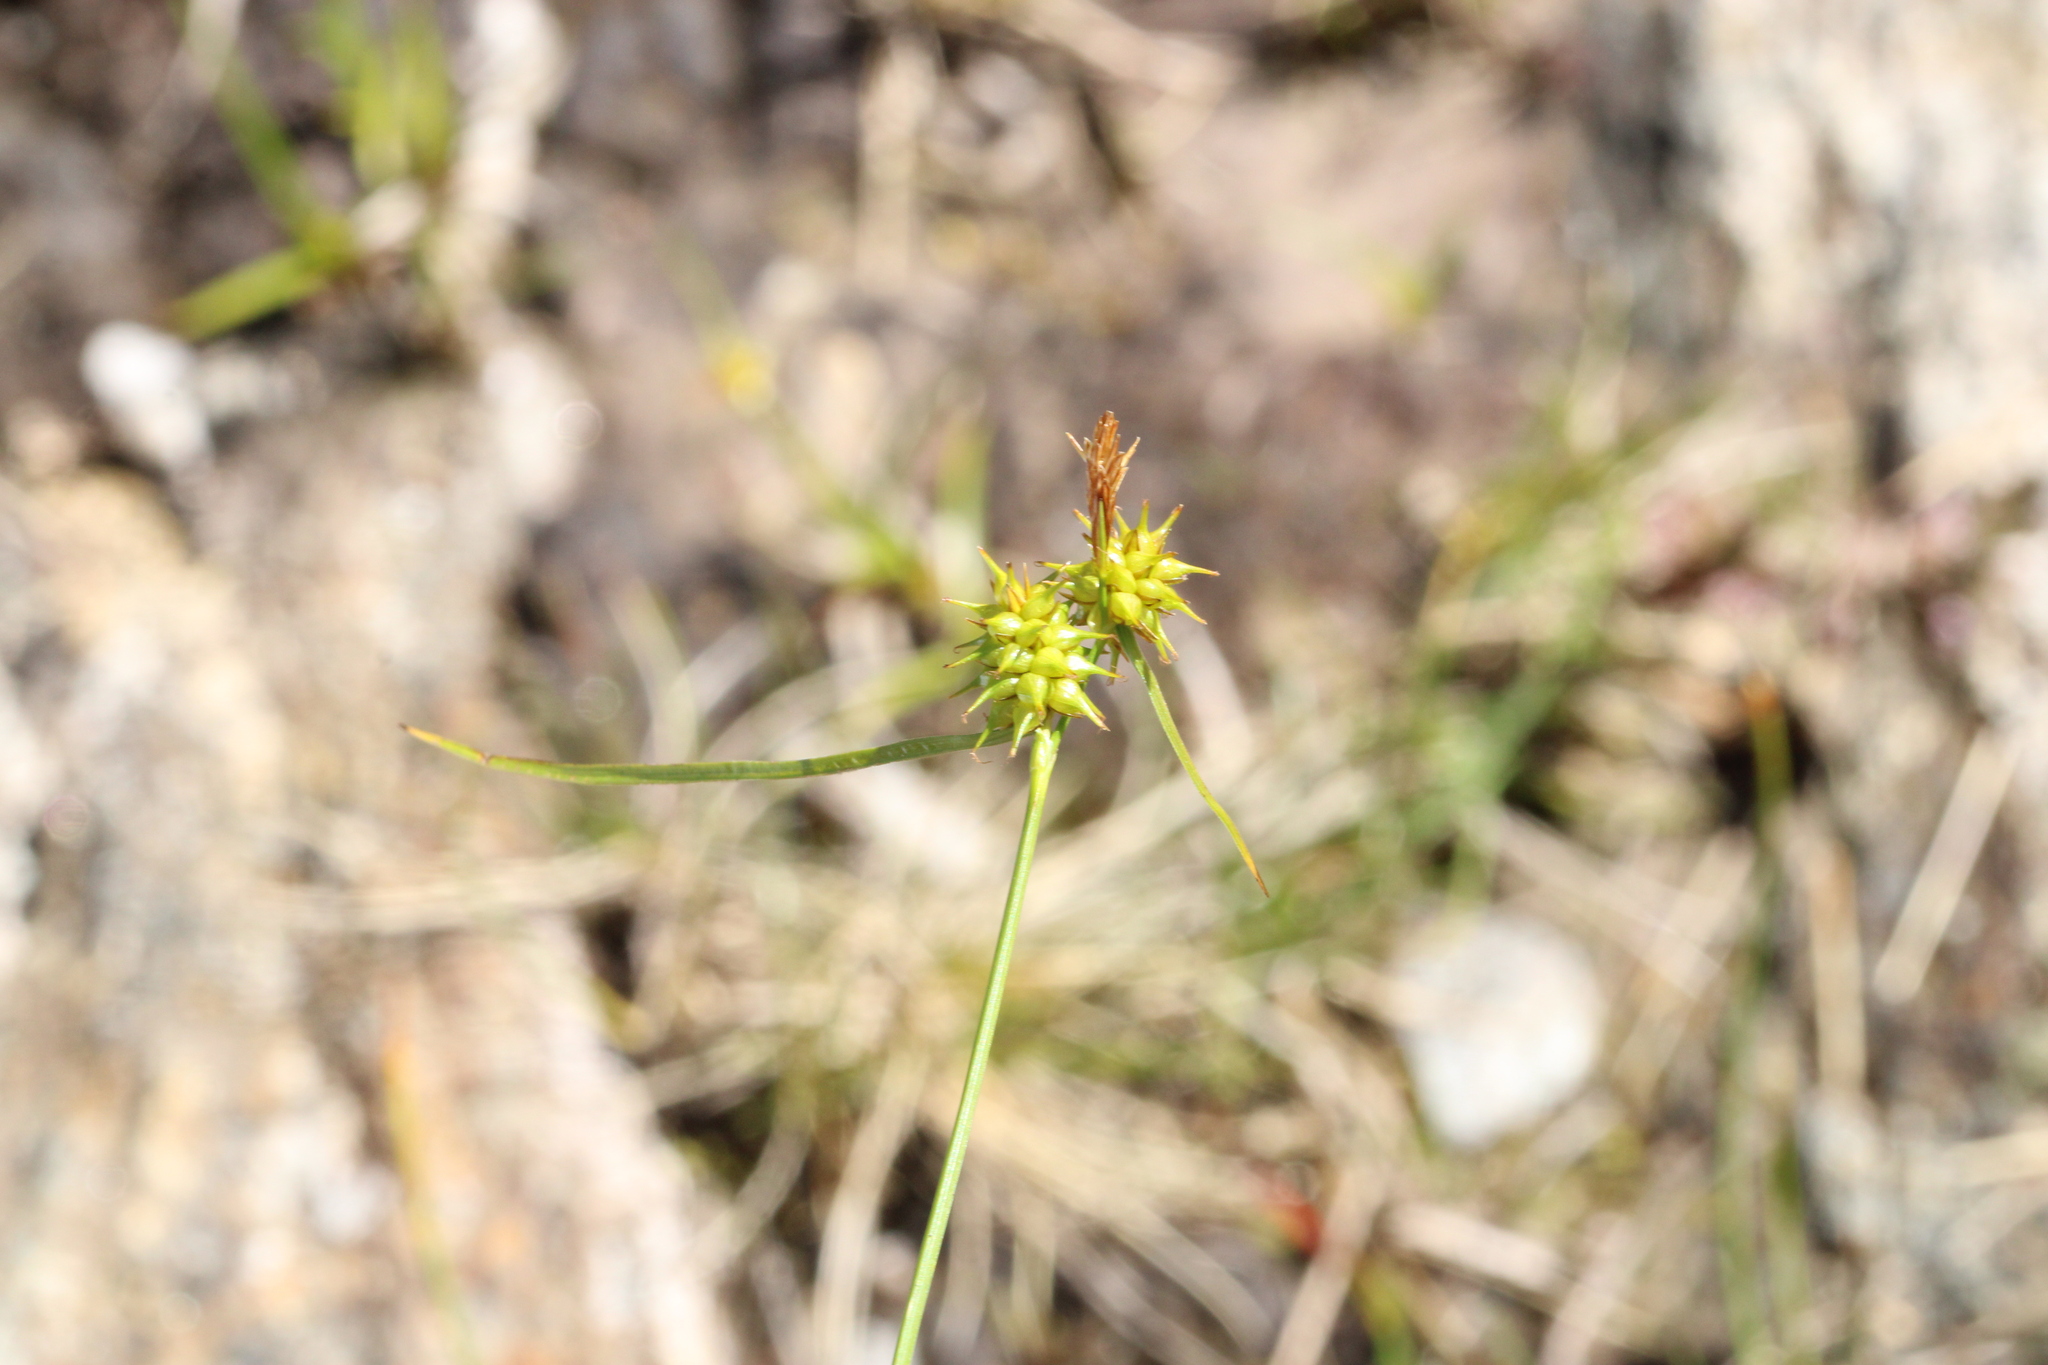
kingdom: Plantae
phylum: Tracheophyta
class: Liliopsida
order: Poales
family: Cyperaceae
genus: Carex
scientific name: Carex flava
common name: Large yellow-sedge
